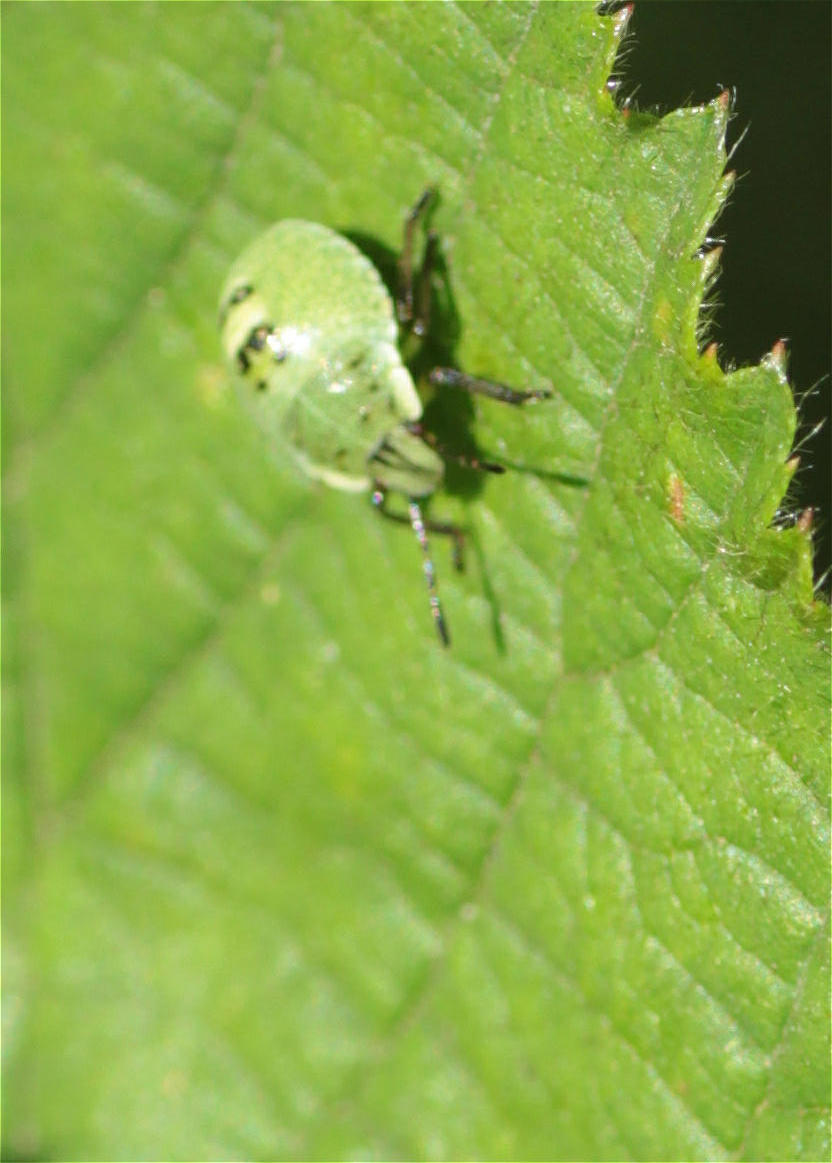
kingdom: Animalia
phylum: Arthropoda
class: Insecta
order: Hemiptera
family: Pentatomidae
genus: Palomena
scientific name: Palomena prasina
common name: Green shieldbug
